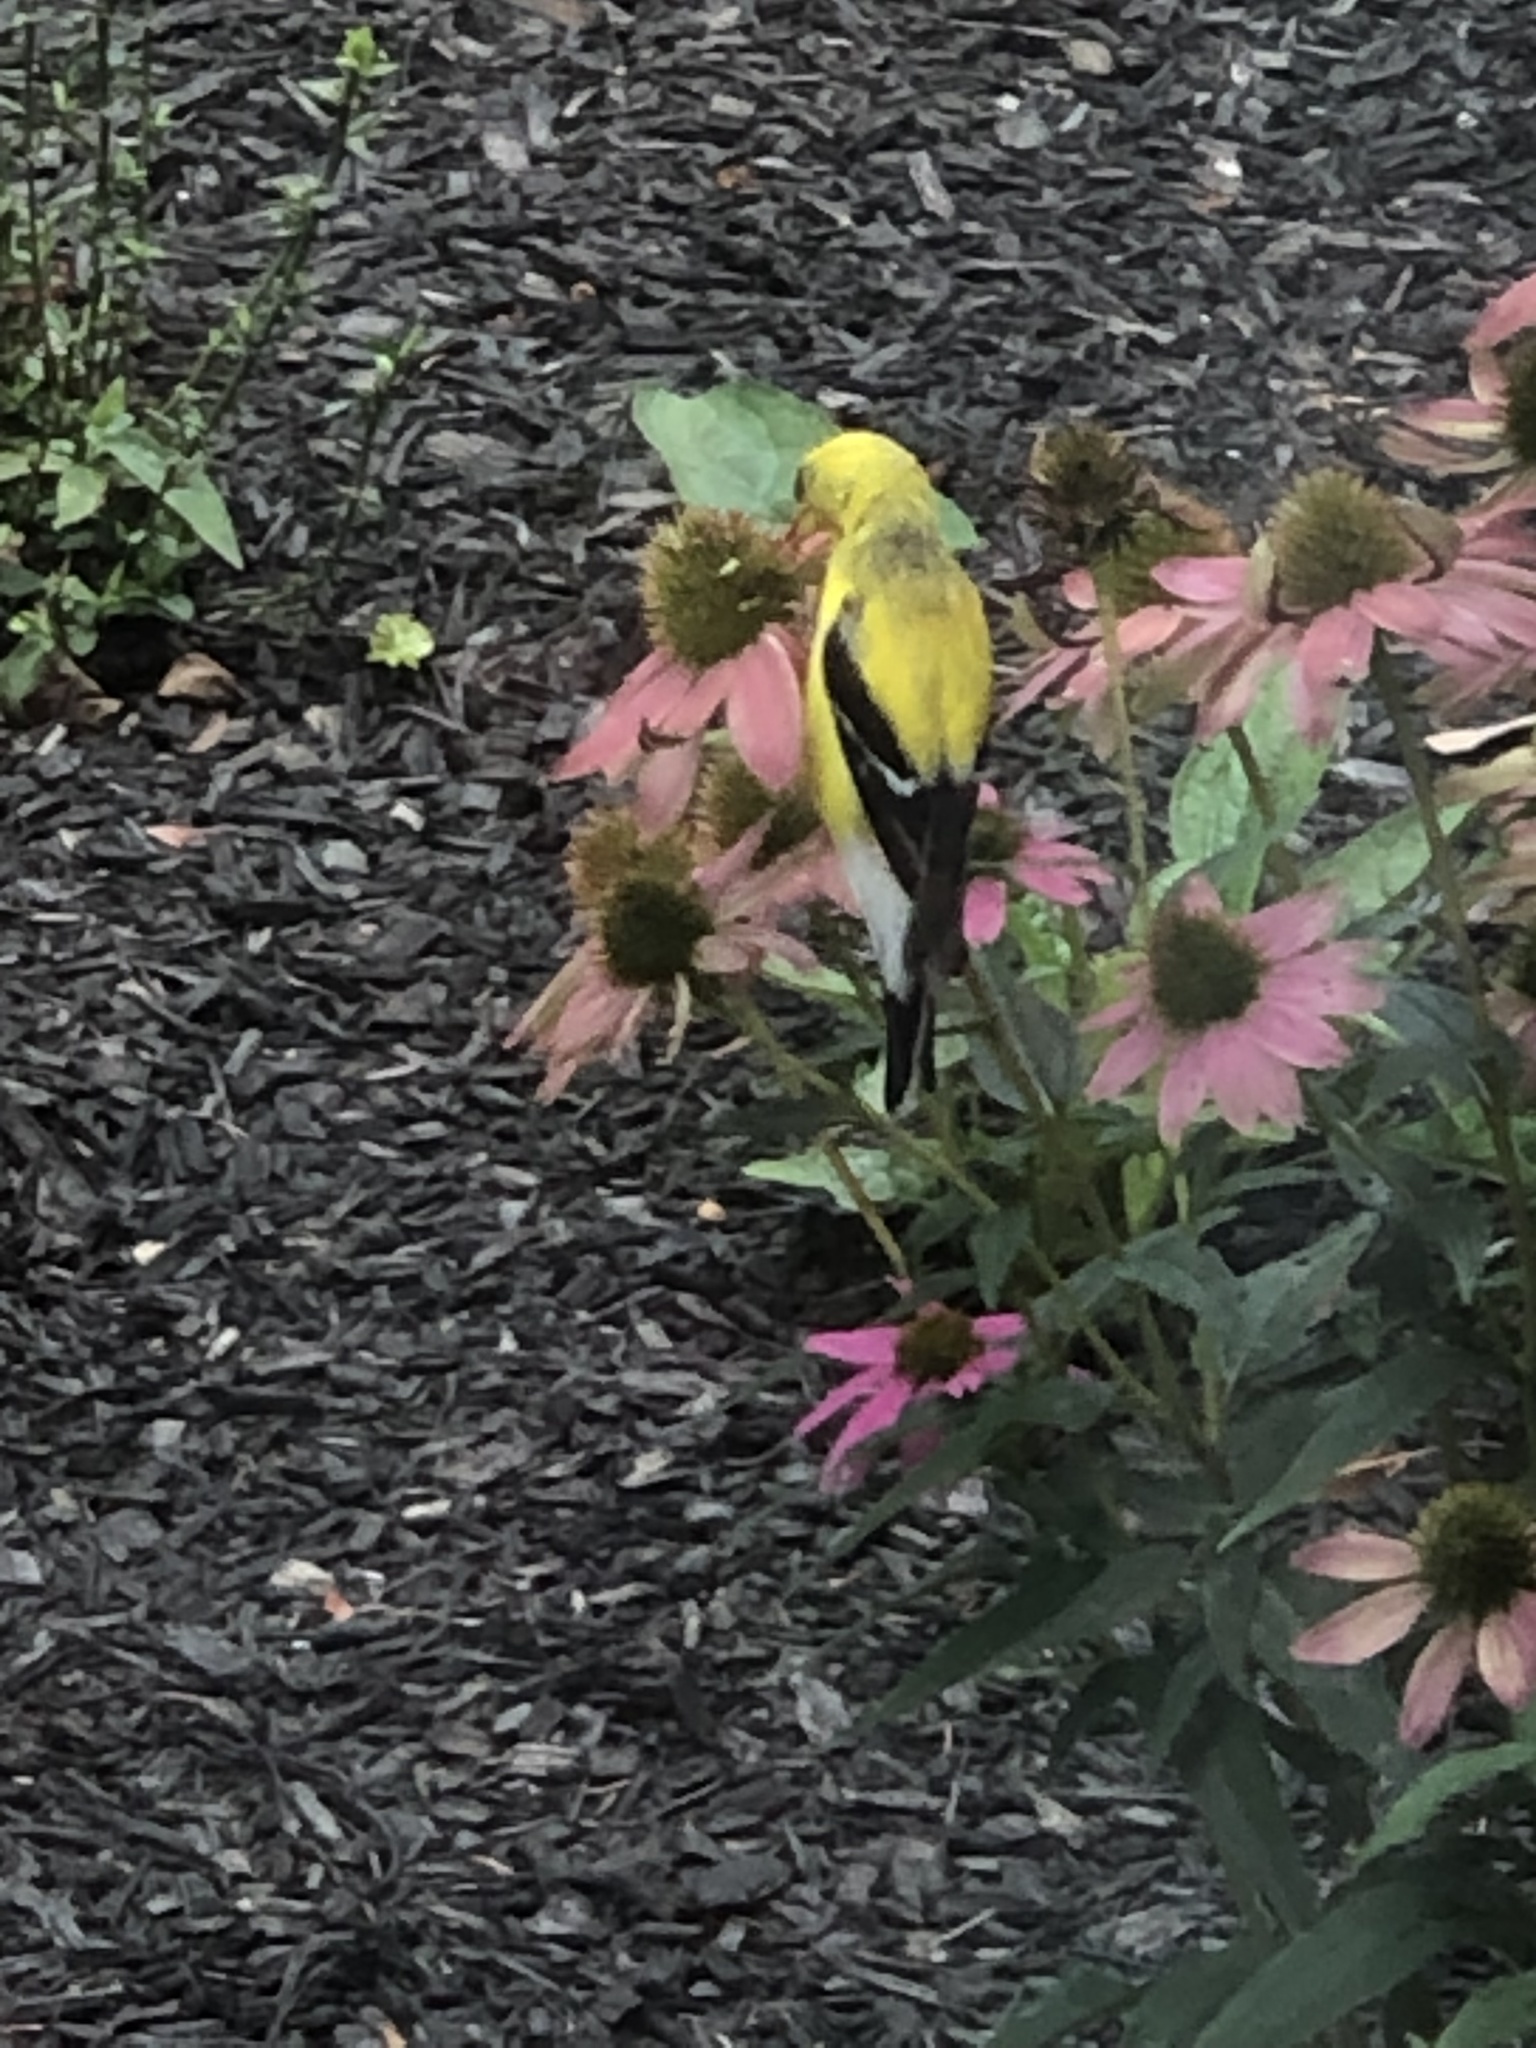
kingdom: Animalia
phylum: Chordata
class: Aves
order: Passeriformes
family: Fringillidae
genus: Spinus
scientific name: Spinus tristis
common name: American goldfinch
